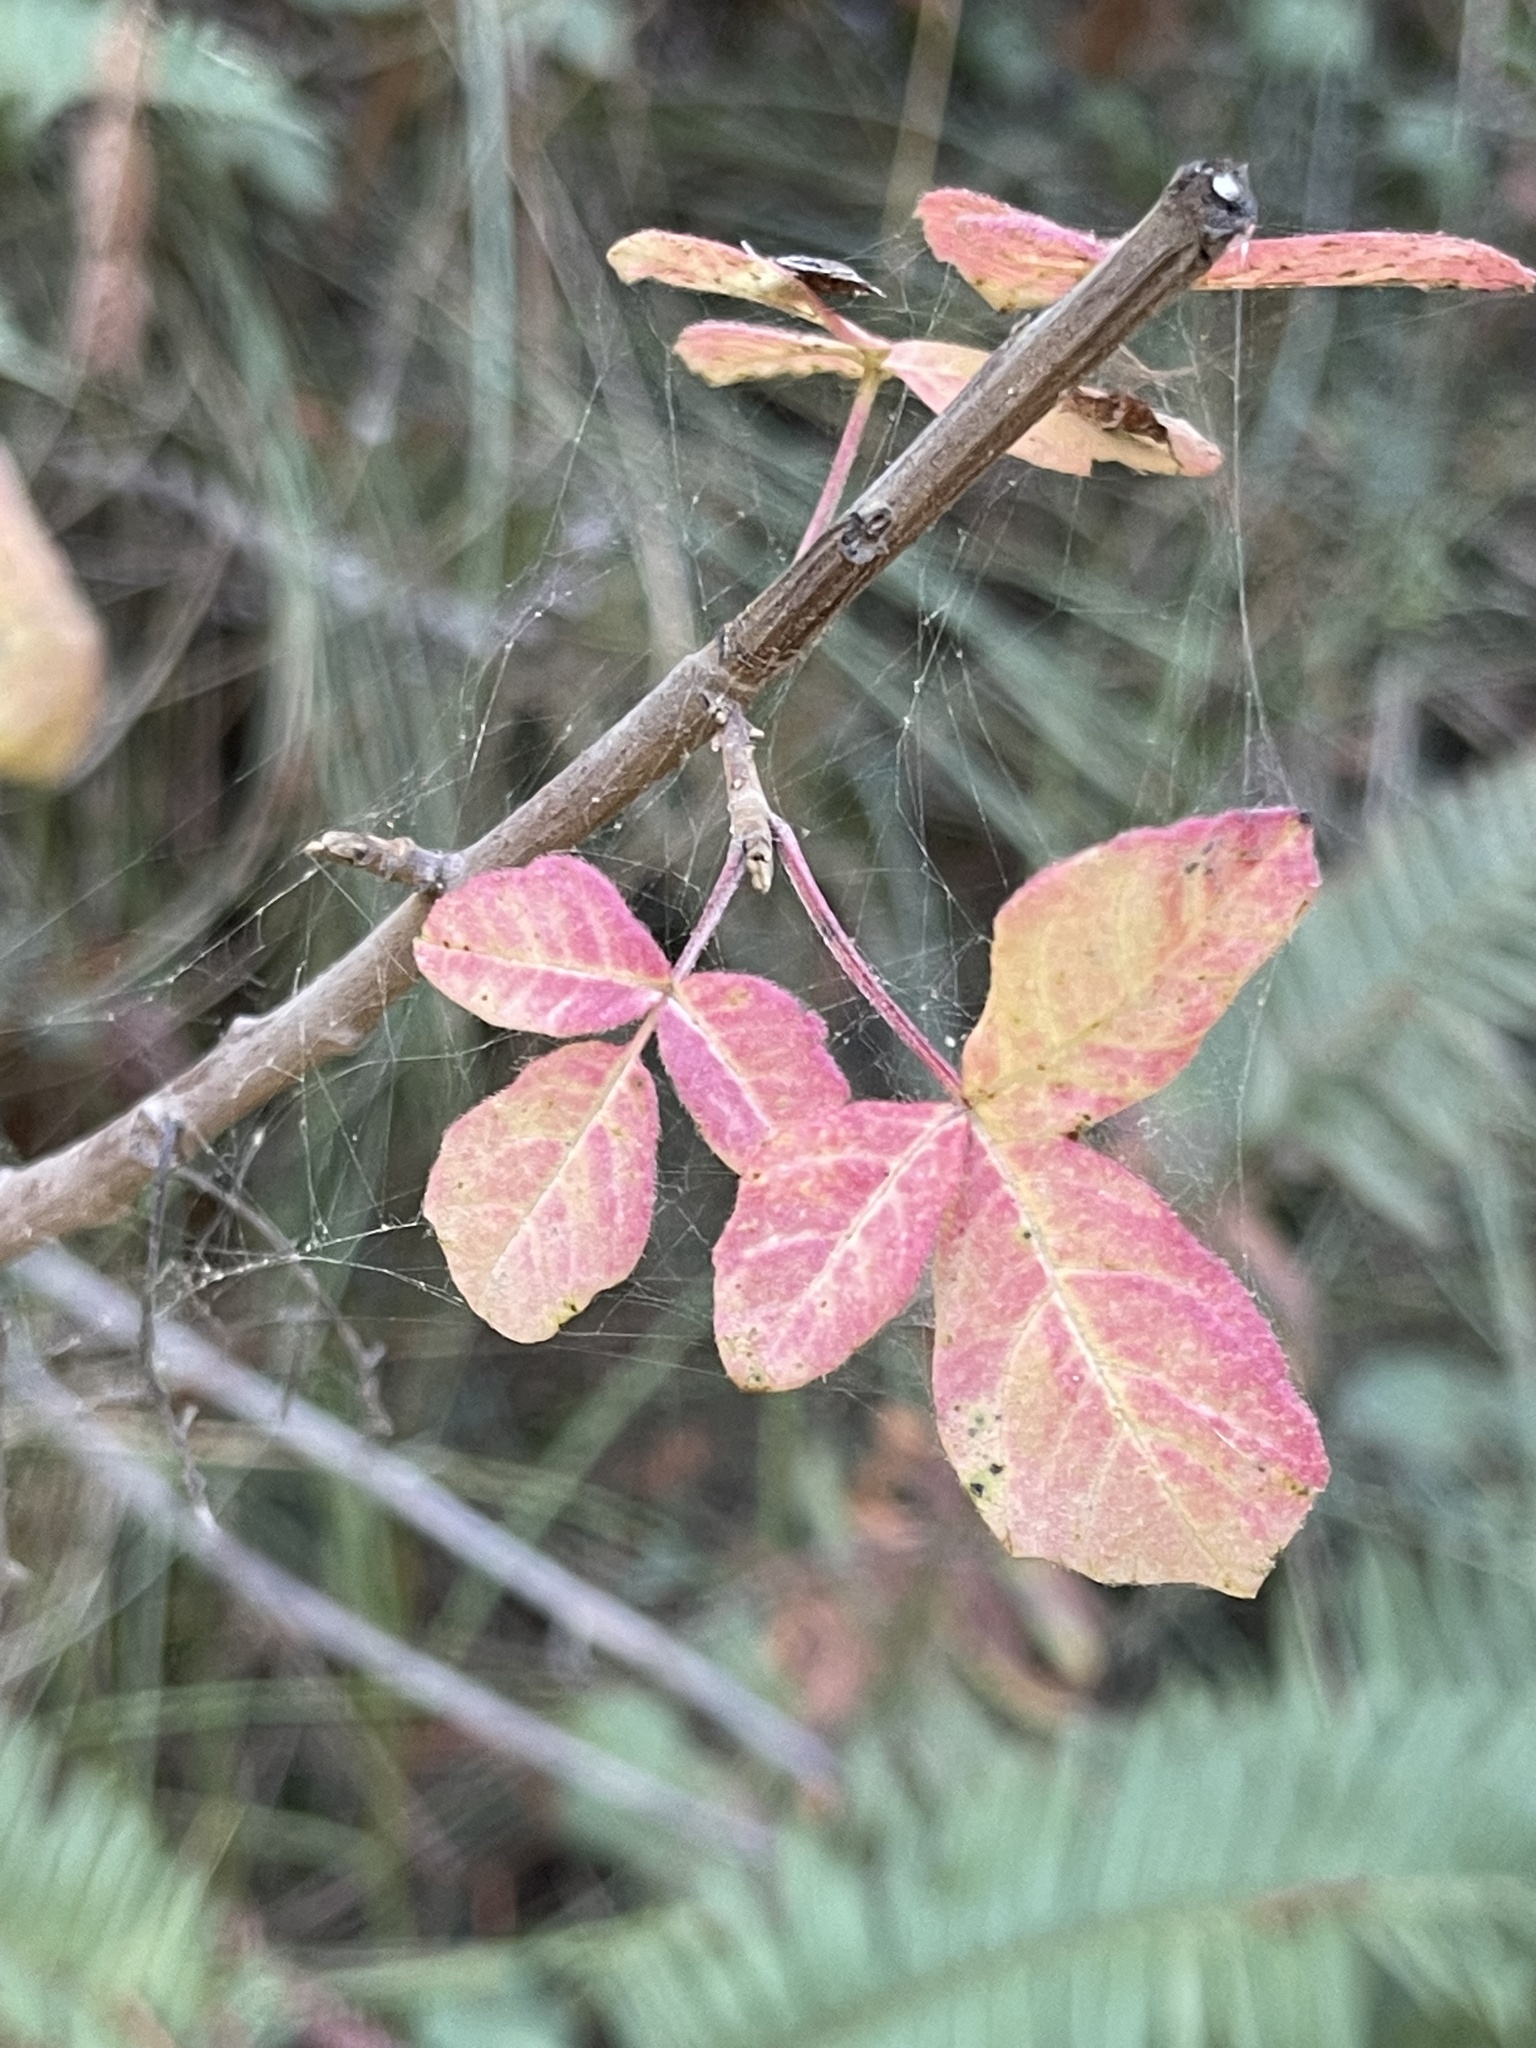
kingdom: Plantae
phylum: Tracheophyta
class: Magnoliopsida
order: Sapindales
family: Anacardiaceae
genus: Toxicodendron
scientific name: Toxicodendron diversilobum
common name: Pacific poison-oak
